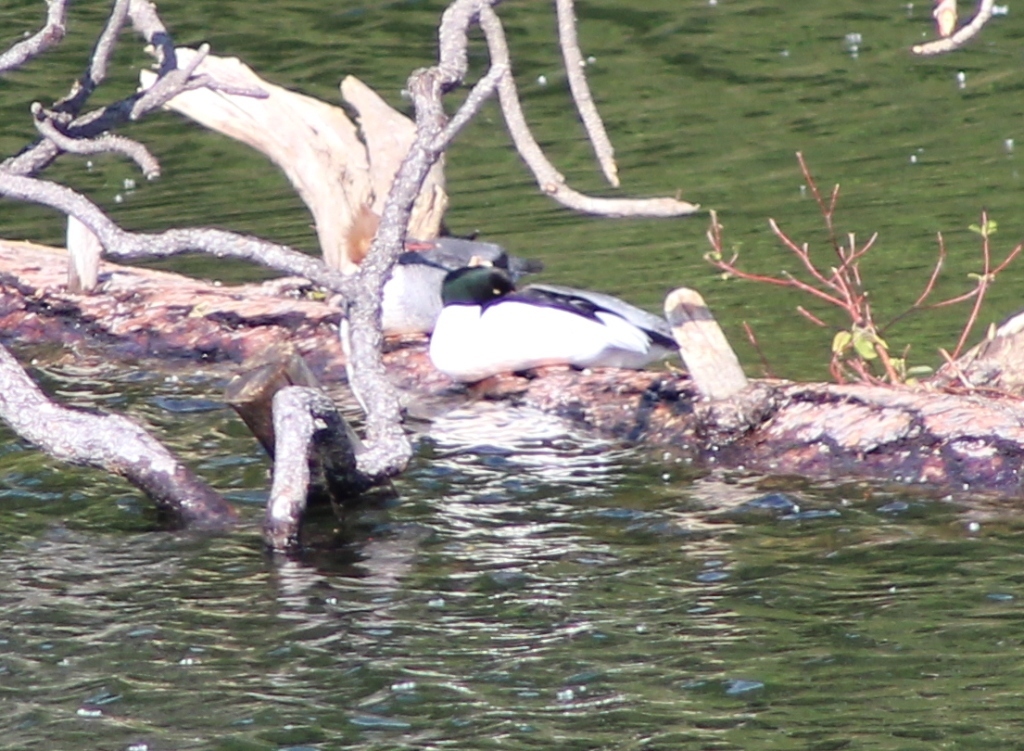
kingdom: Animalia
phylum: Chordata
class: Aves
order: Anseriformes
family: Anatidae
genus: Mergus
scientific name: Mergus merganser
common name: Common merganser
